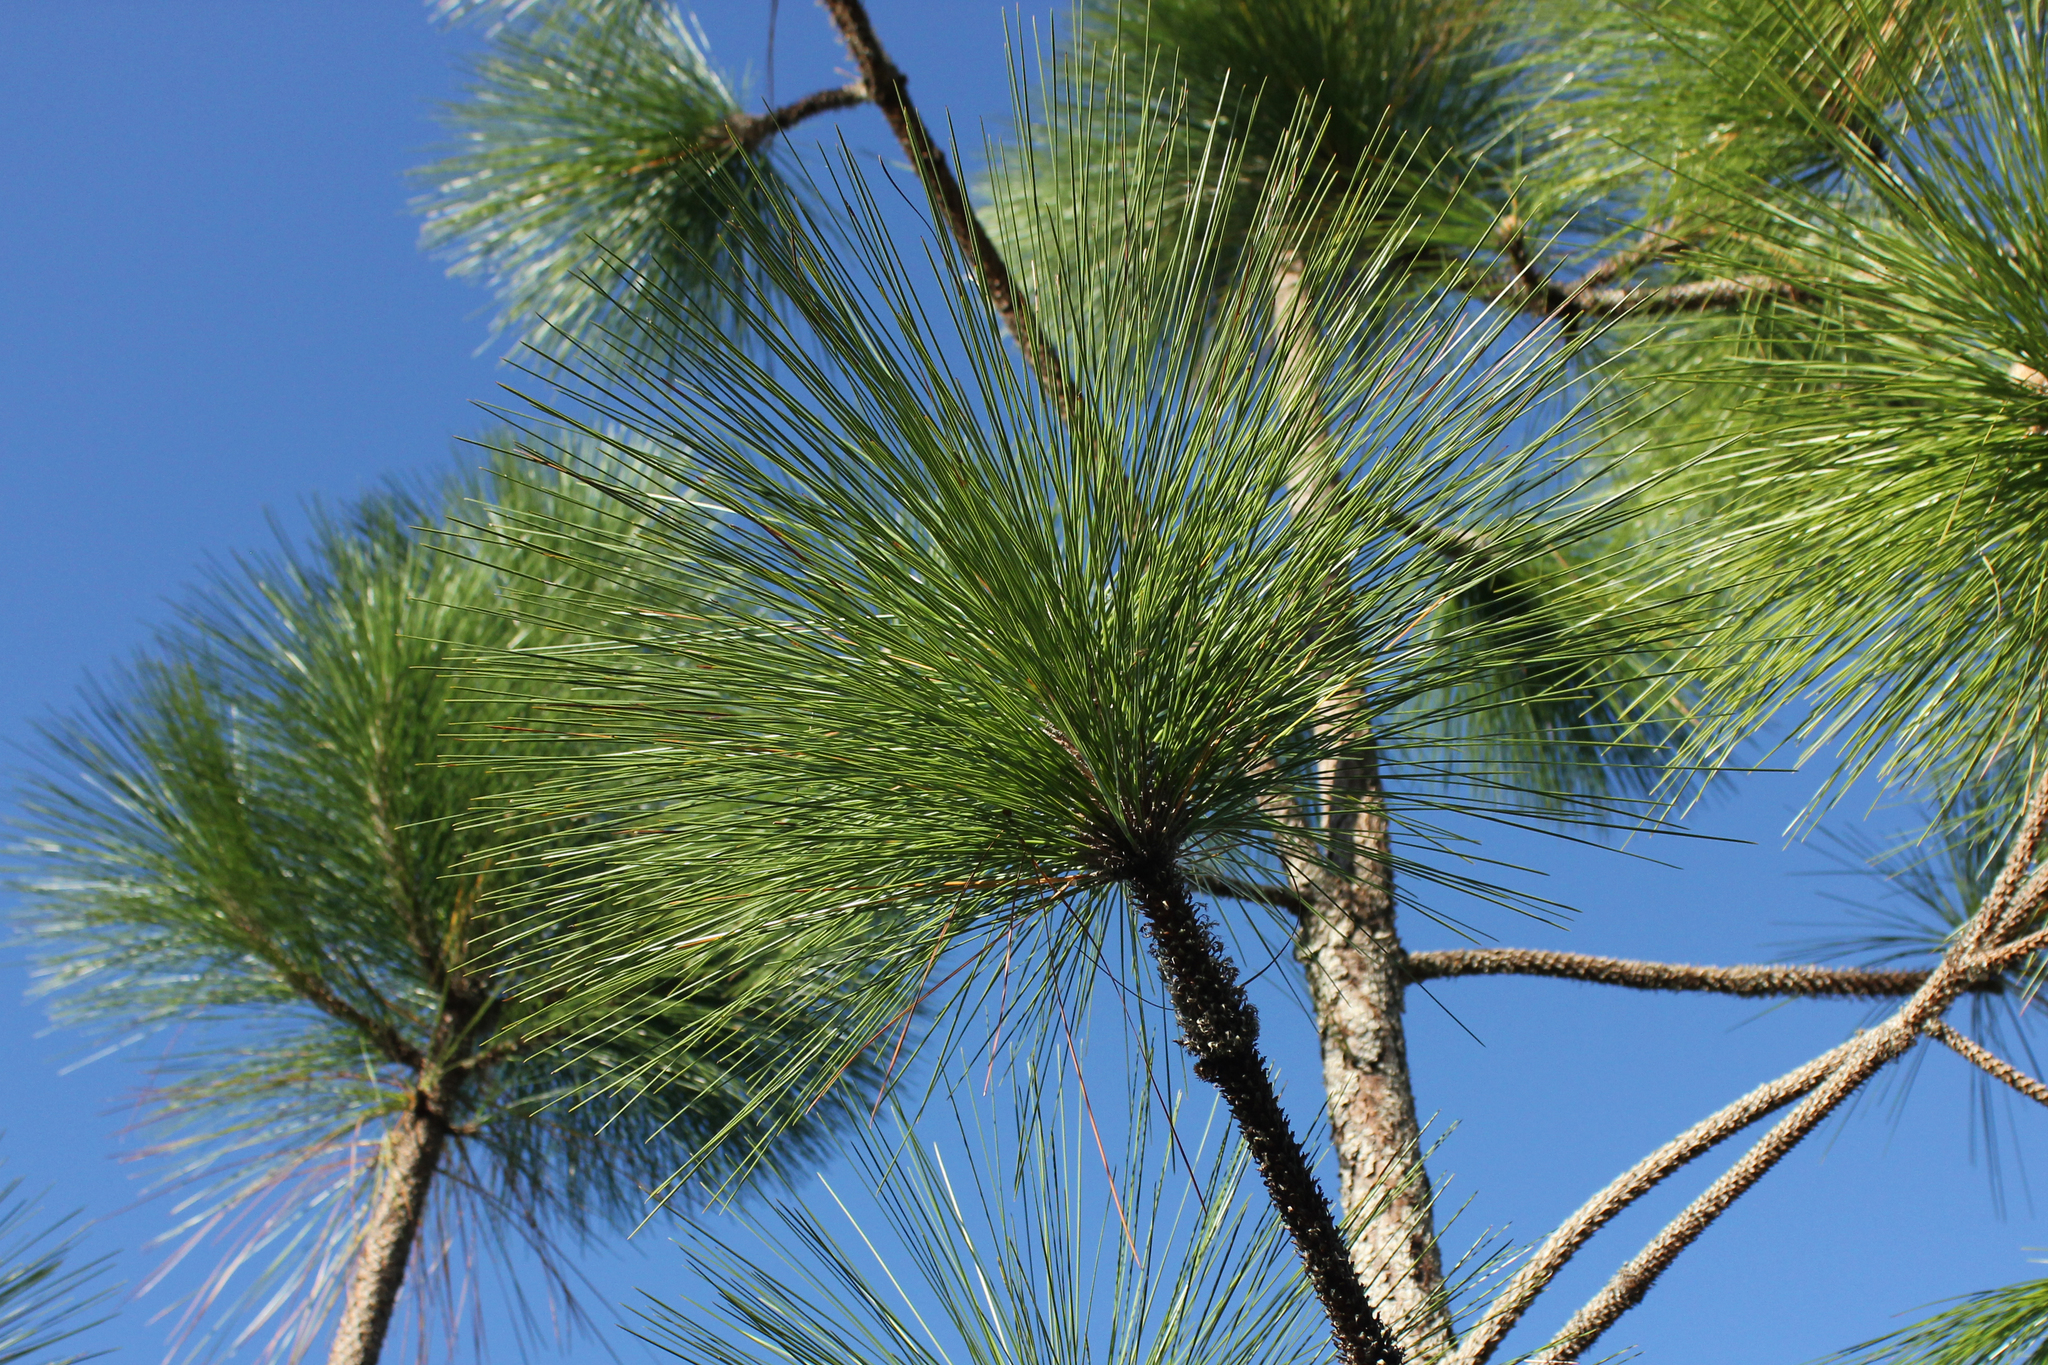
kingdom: Plantae
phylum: Tracheophyta
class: Pinopsida
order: Pinales
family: Pinaceae
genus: Pinus
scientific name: Pinus palustris
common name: Longleaf pine
